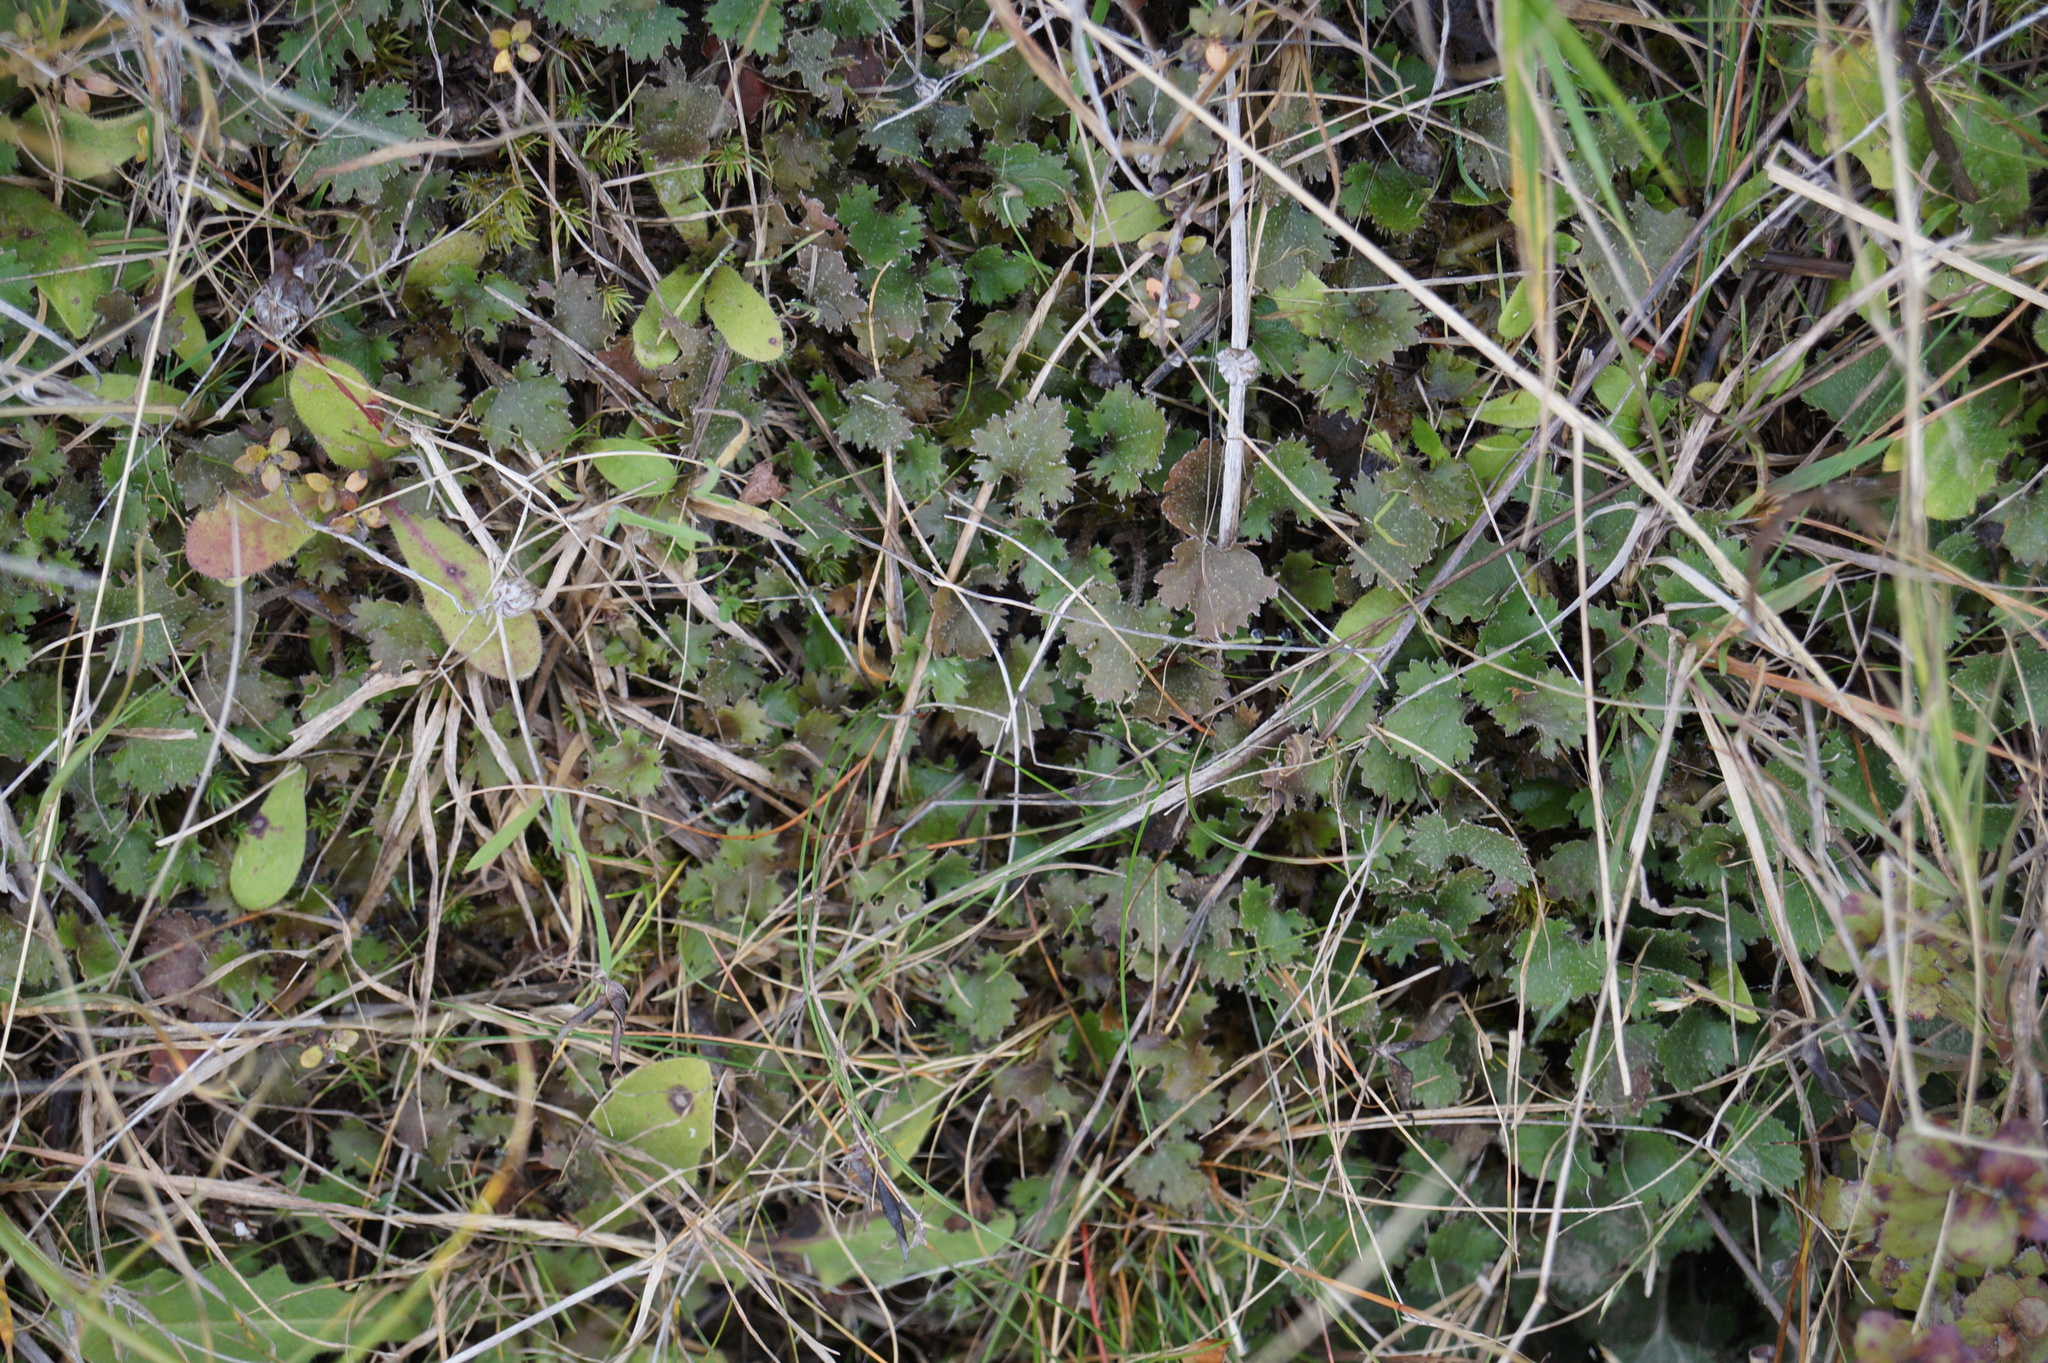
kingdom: Plantae
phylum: Tracheophyta
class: Magnoliopsida
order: Gunnerales
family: Gunneraceae
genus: Gunnera
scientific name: Gunnera monoica
